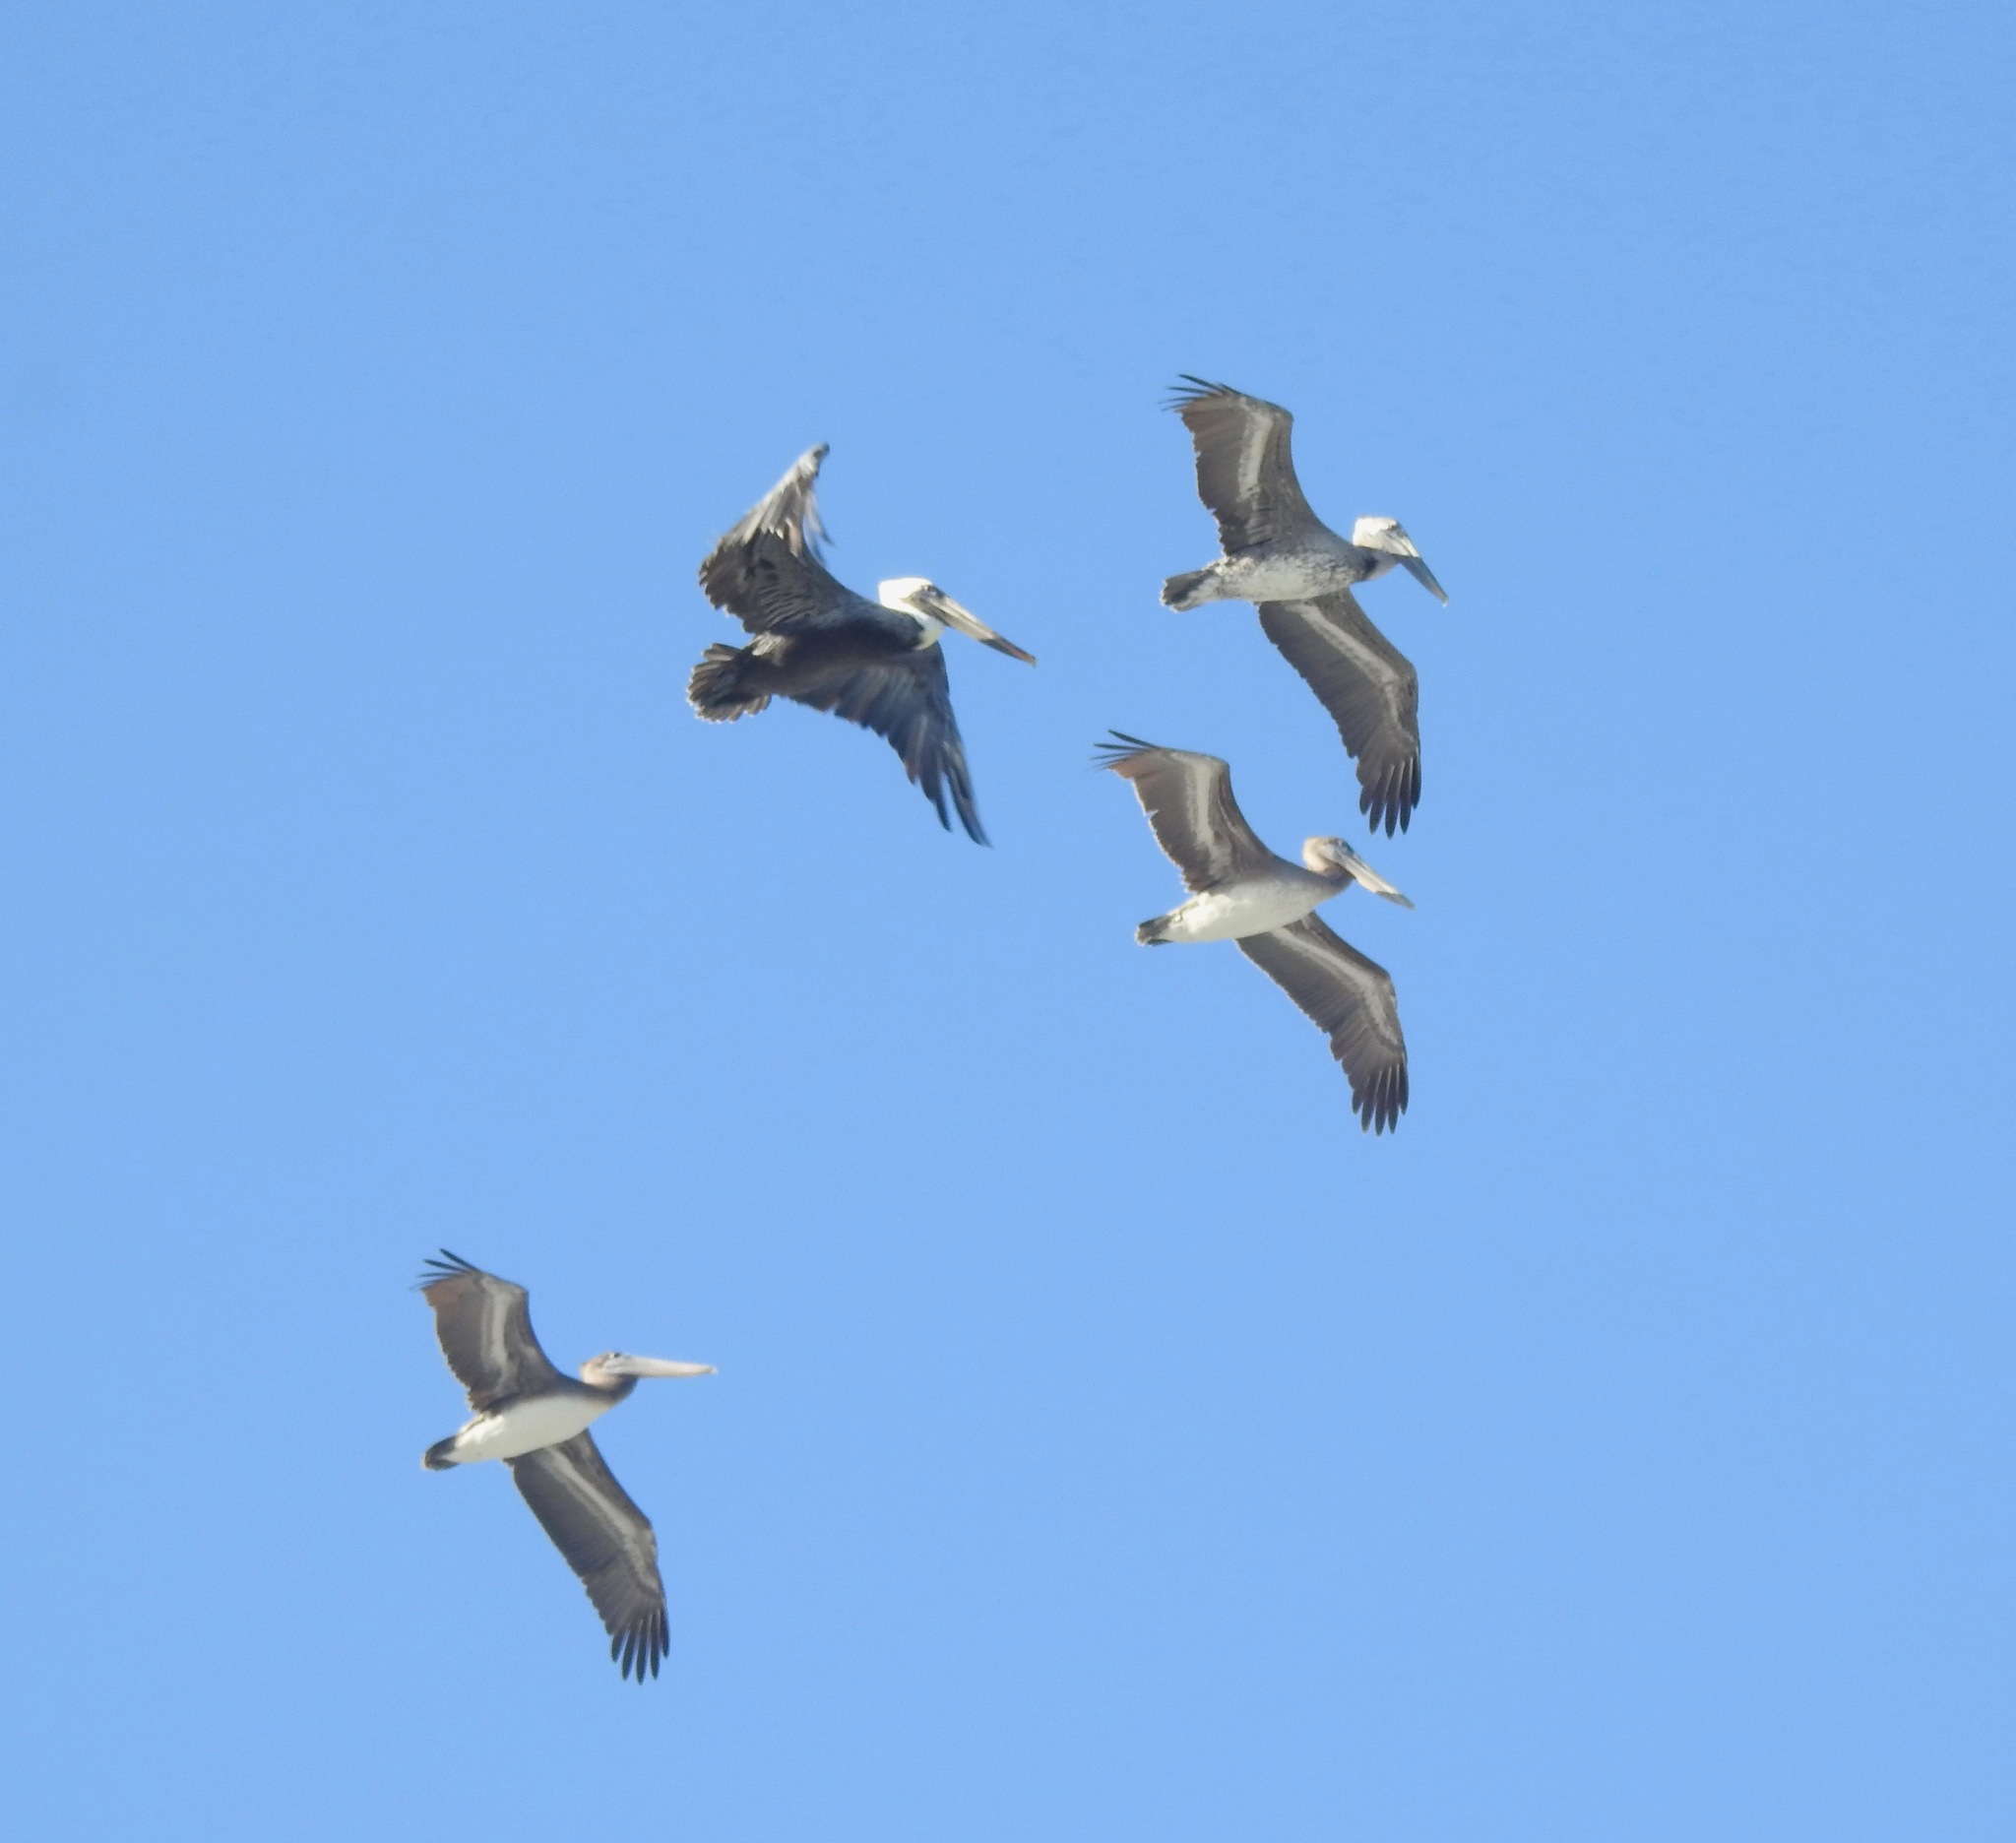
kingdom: Animalia
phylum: Chordata
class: Aves
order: Pelecaniformes
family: Pelecanidae
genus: Pelecanus
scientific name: Pelecanus occidentalis
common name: Brown pelican
